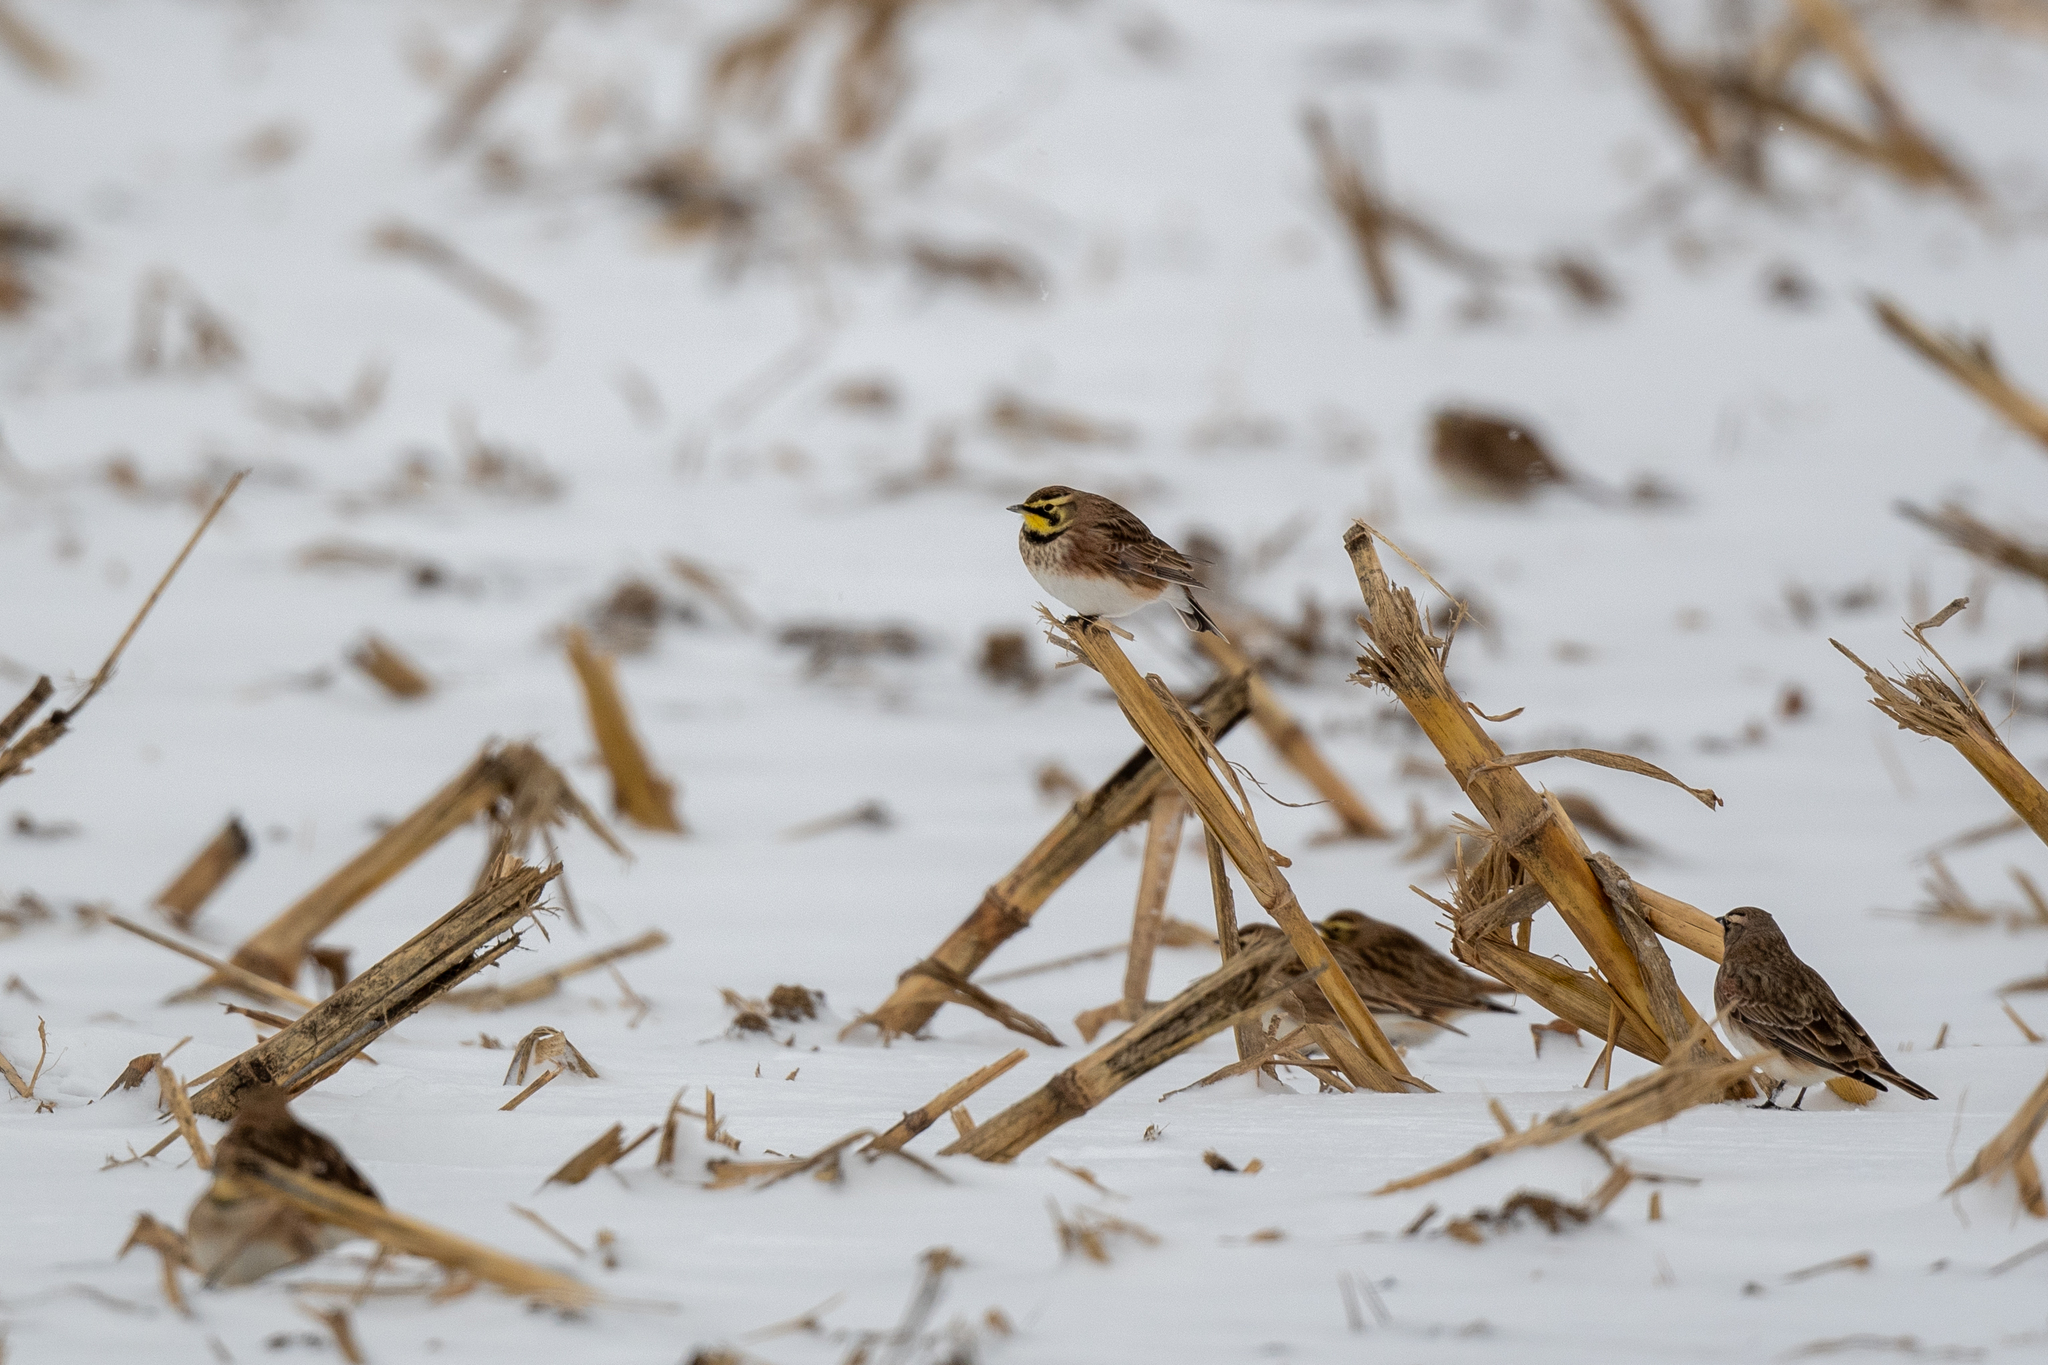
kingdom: Animalia
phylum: Chordata
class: Aves
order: Passeriformes
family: Alaudidae
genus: Eremophila
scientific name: Eremophila alpestris
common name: Horned lark
